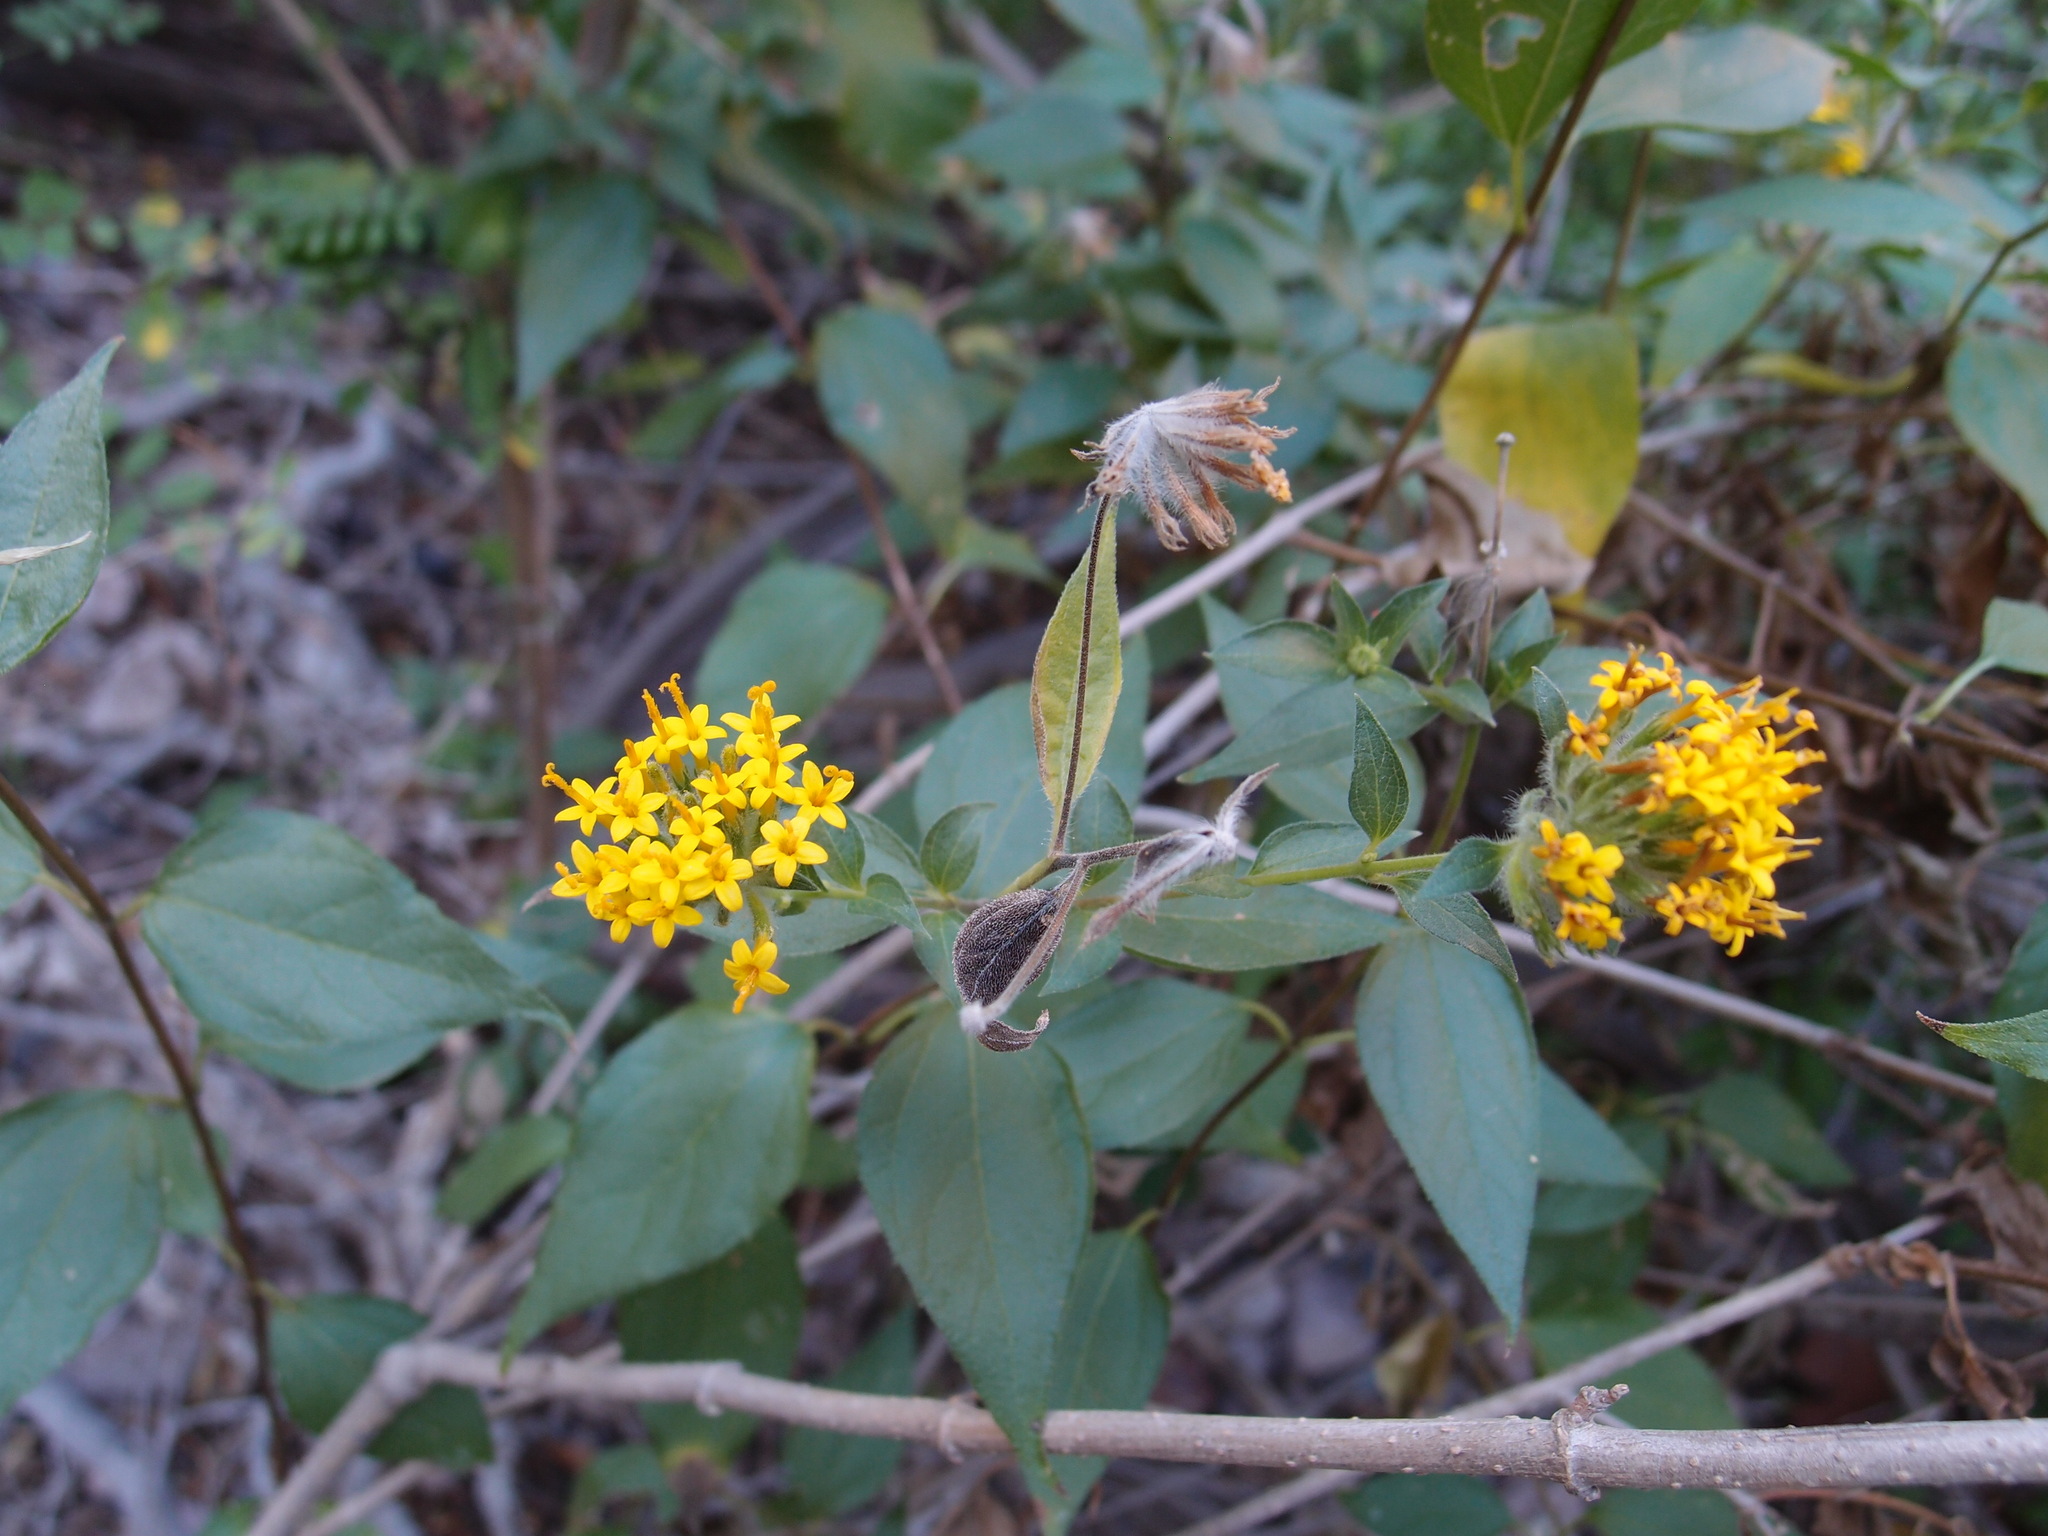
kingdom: Plantae
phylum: Tracheophyta
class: Magnoliopsida
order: Asterales
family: Asteraceae
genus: Lagascea
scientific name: Lagascea decipiens
